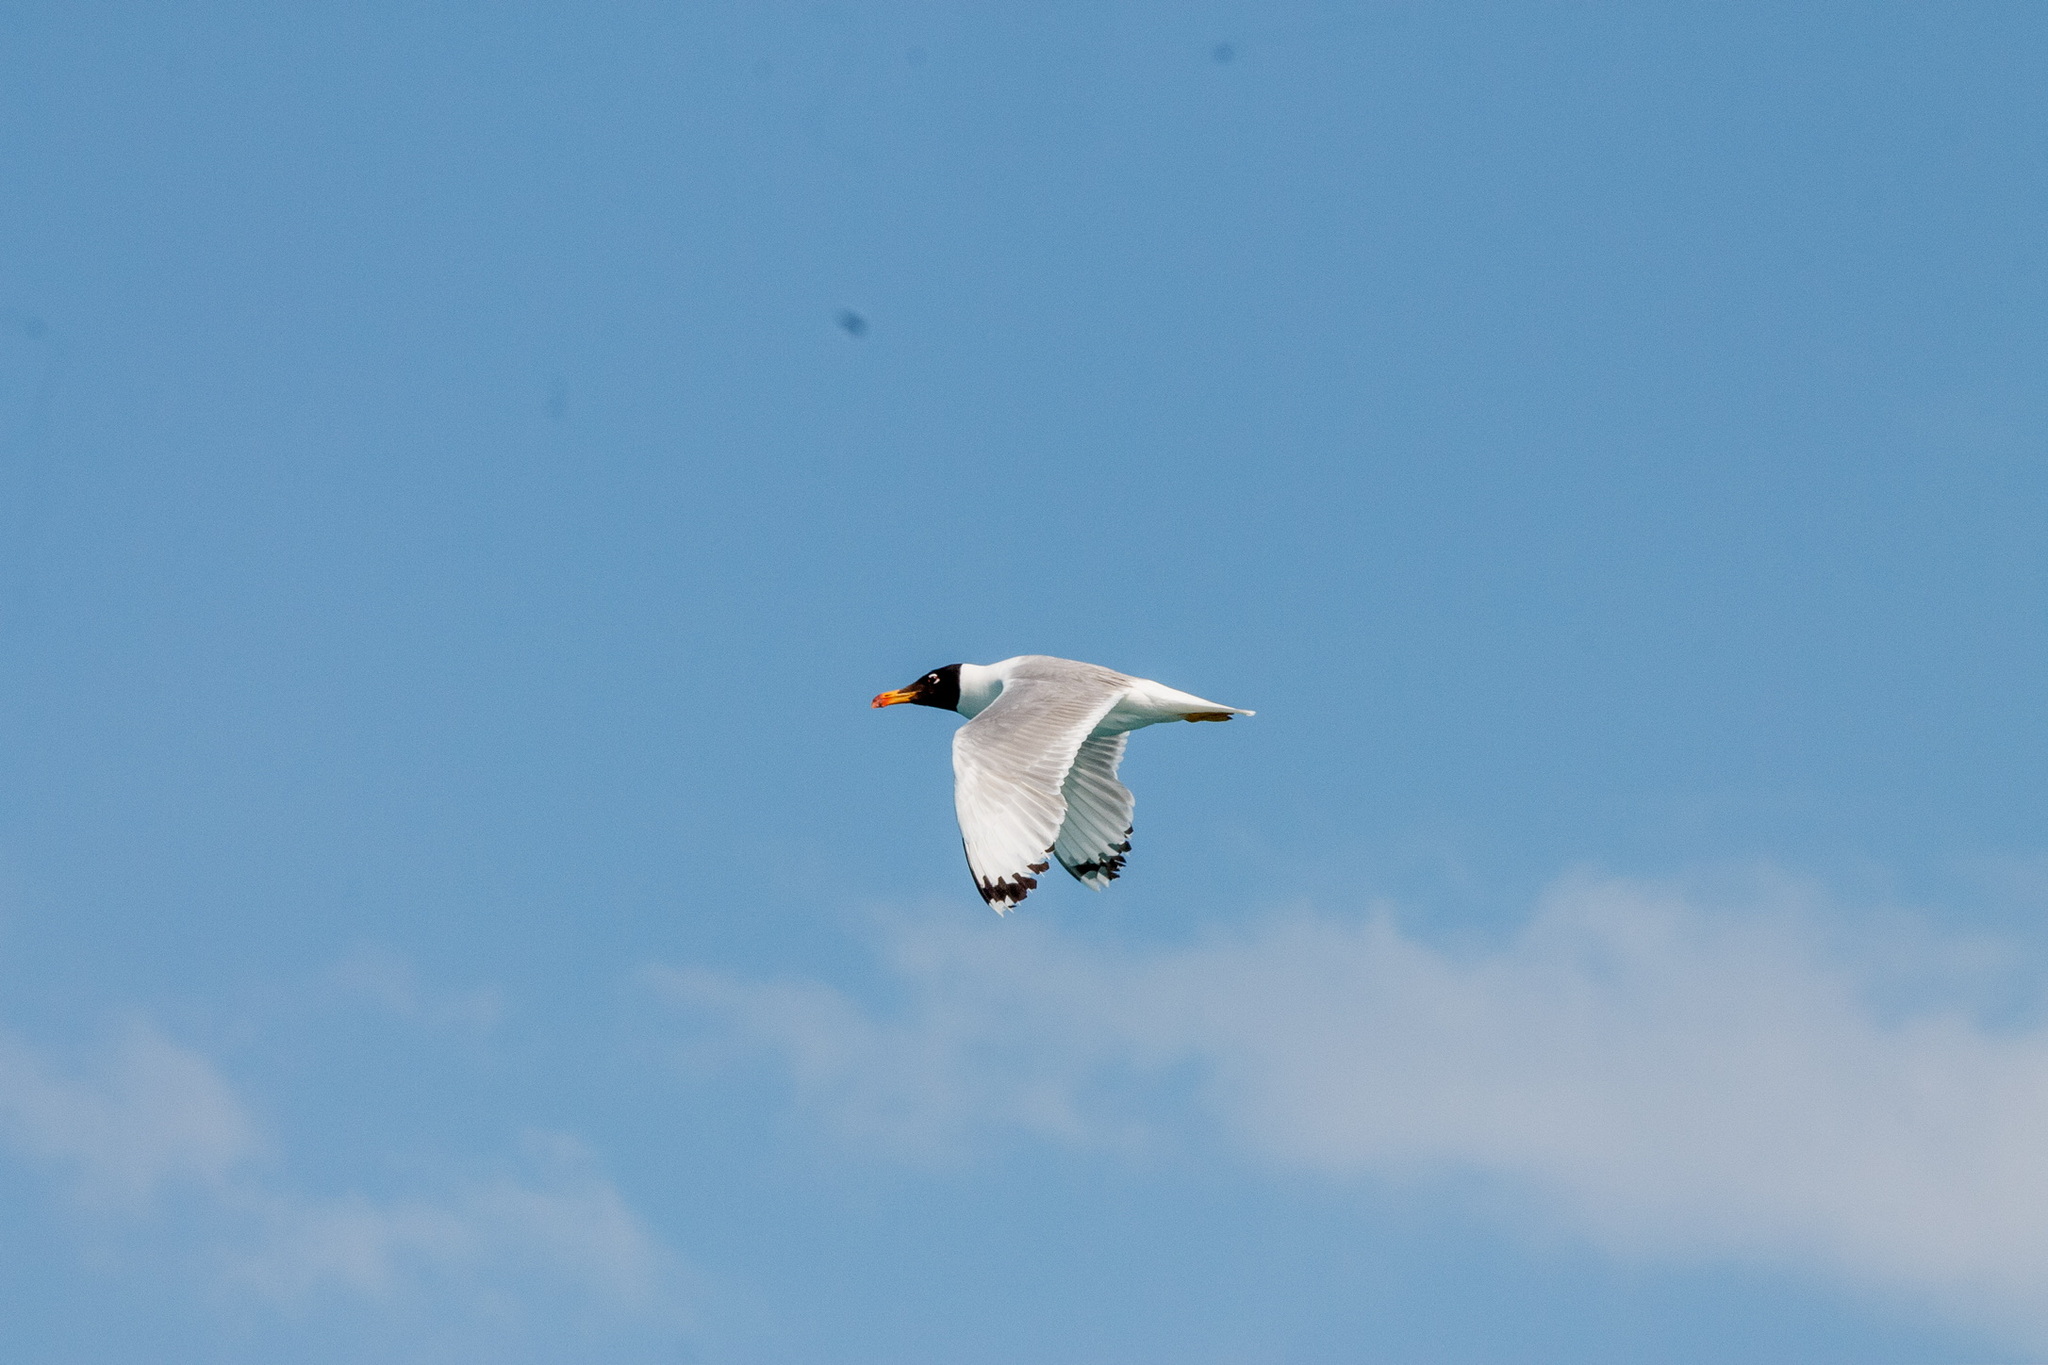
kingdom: Animalia
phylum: Chordata
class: Aves
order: Charadriiformes
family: Laridae
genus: Ichthyaetus
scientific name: Ichthyaetus ichthyaetus
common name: Pallas's gull
